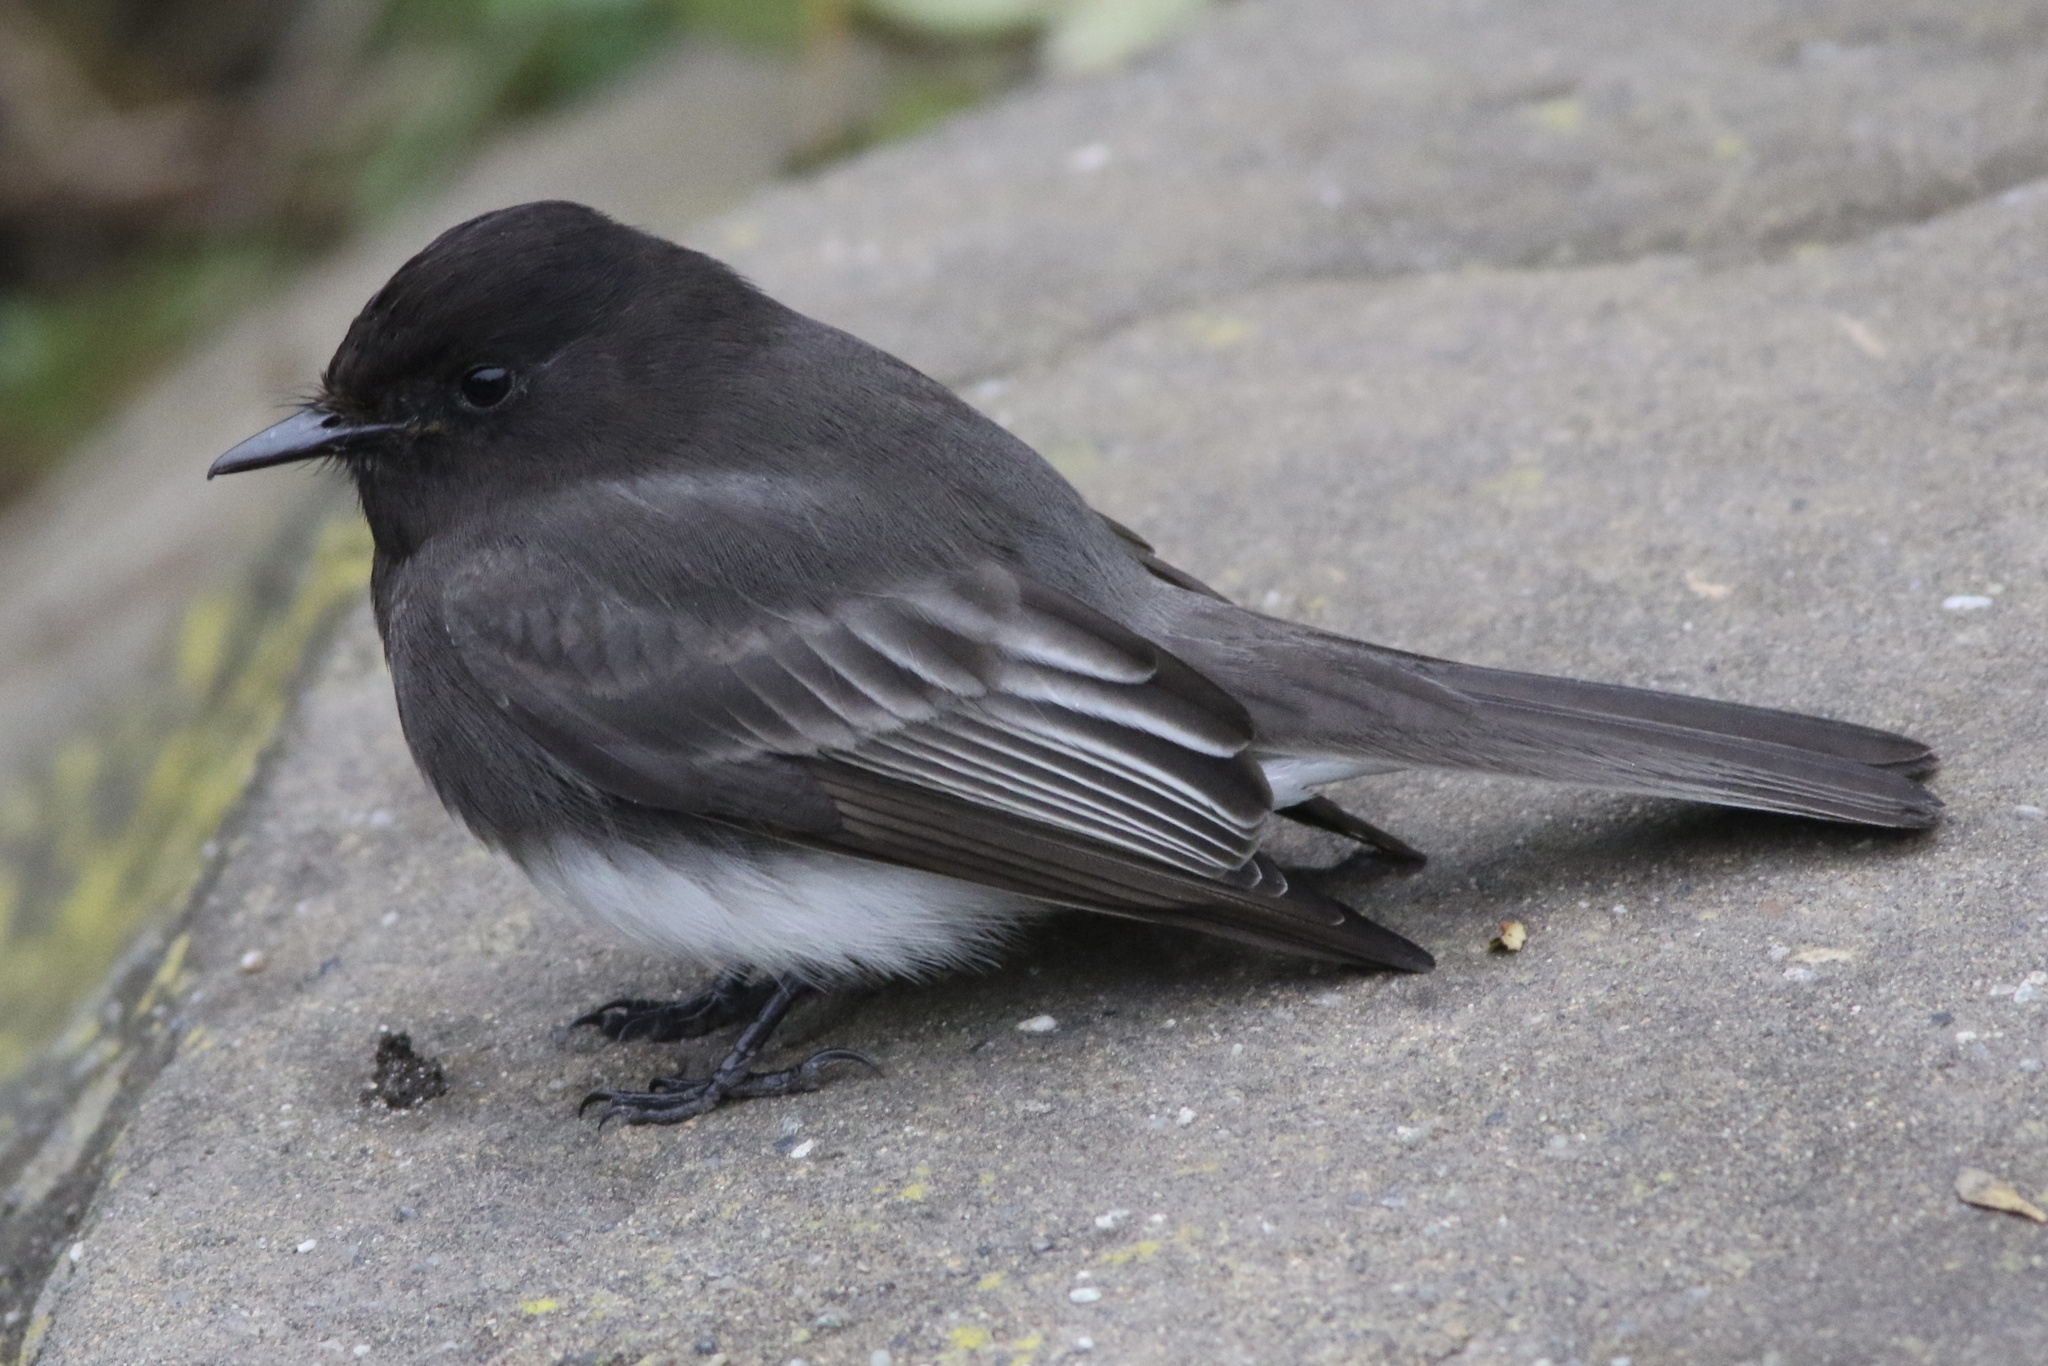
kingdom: Animalia
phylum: Chordata
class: Aves
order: Passeriformes
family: Tyrannidae
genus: Sayornis
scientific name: Sayornis nigricans
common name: Black phoebe
